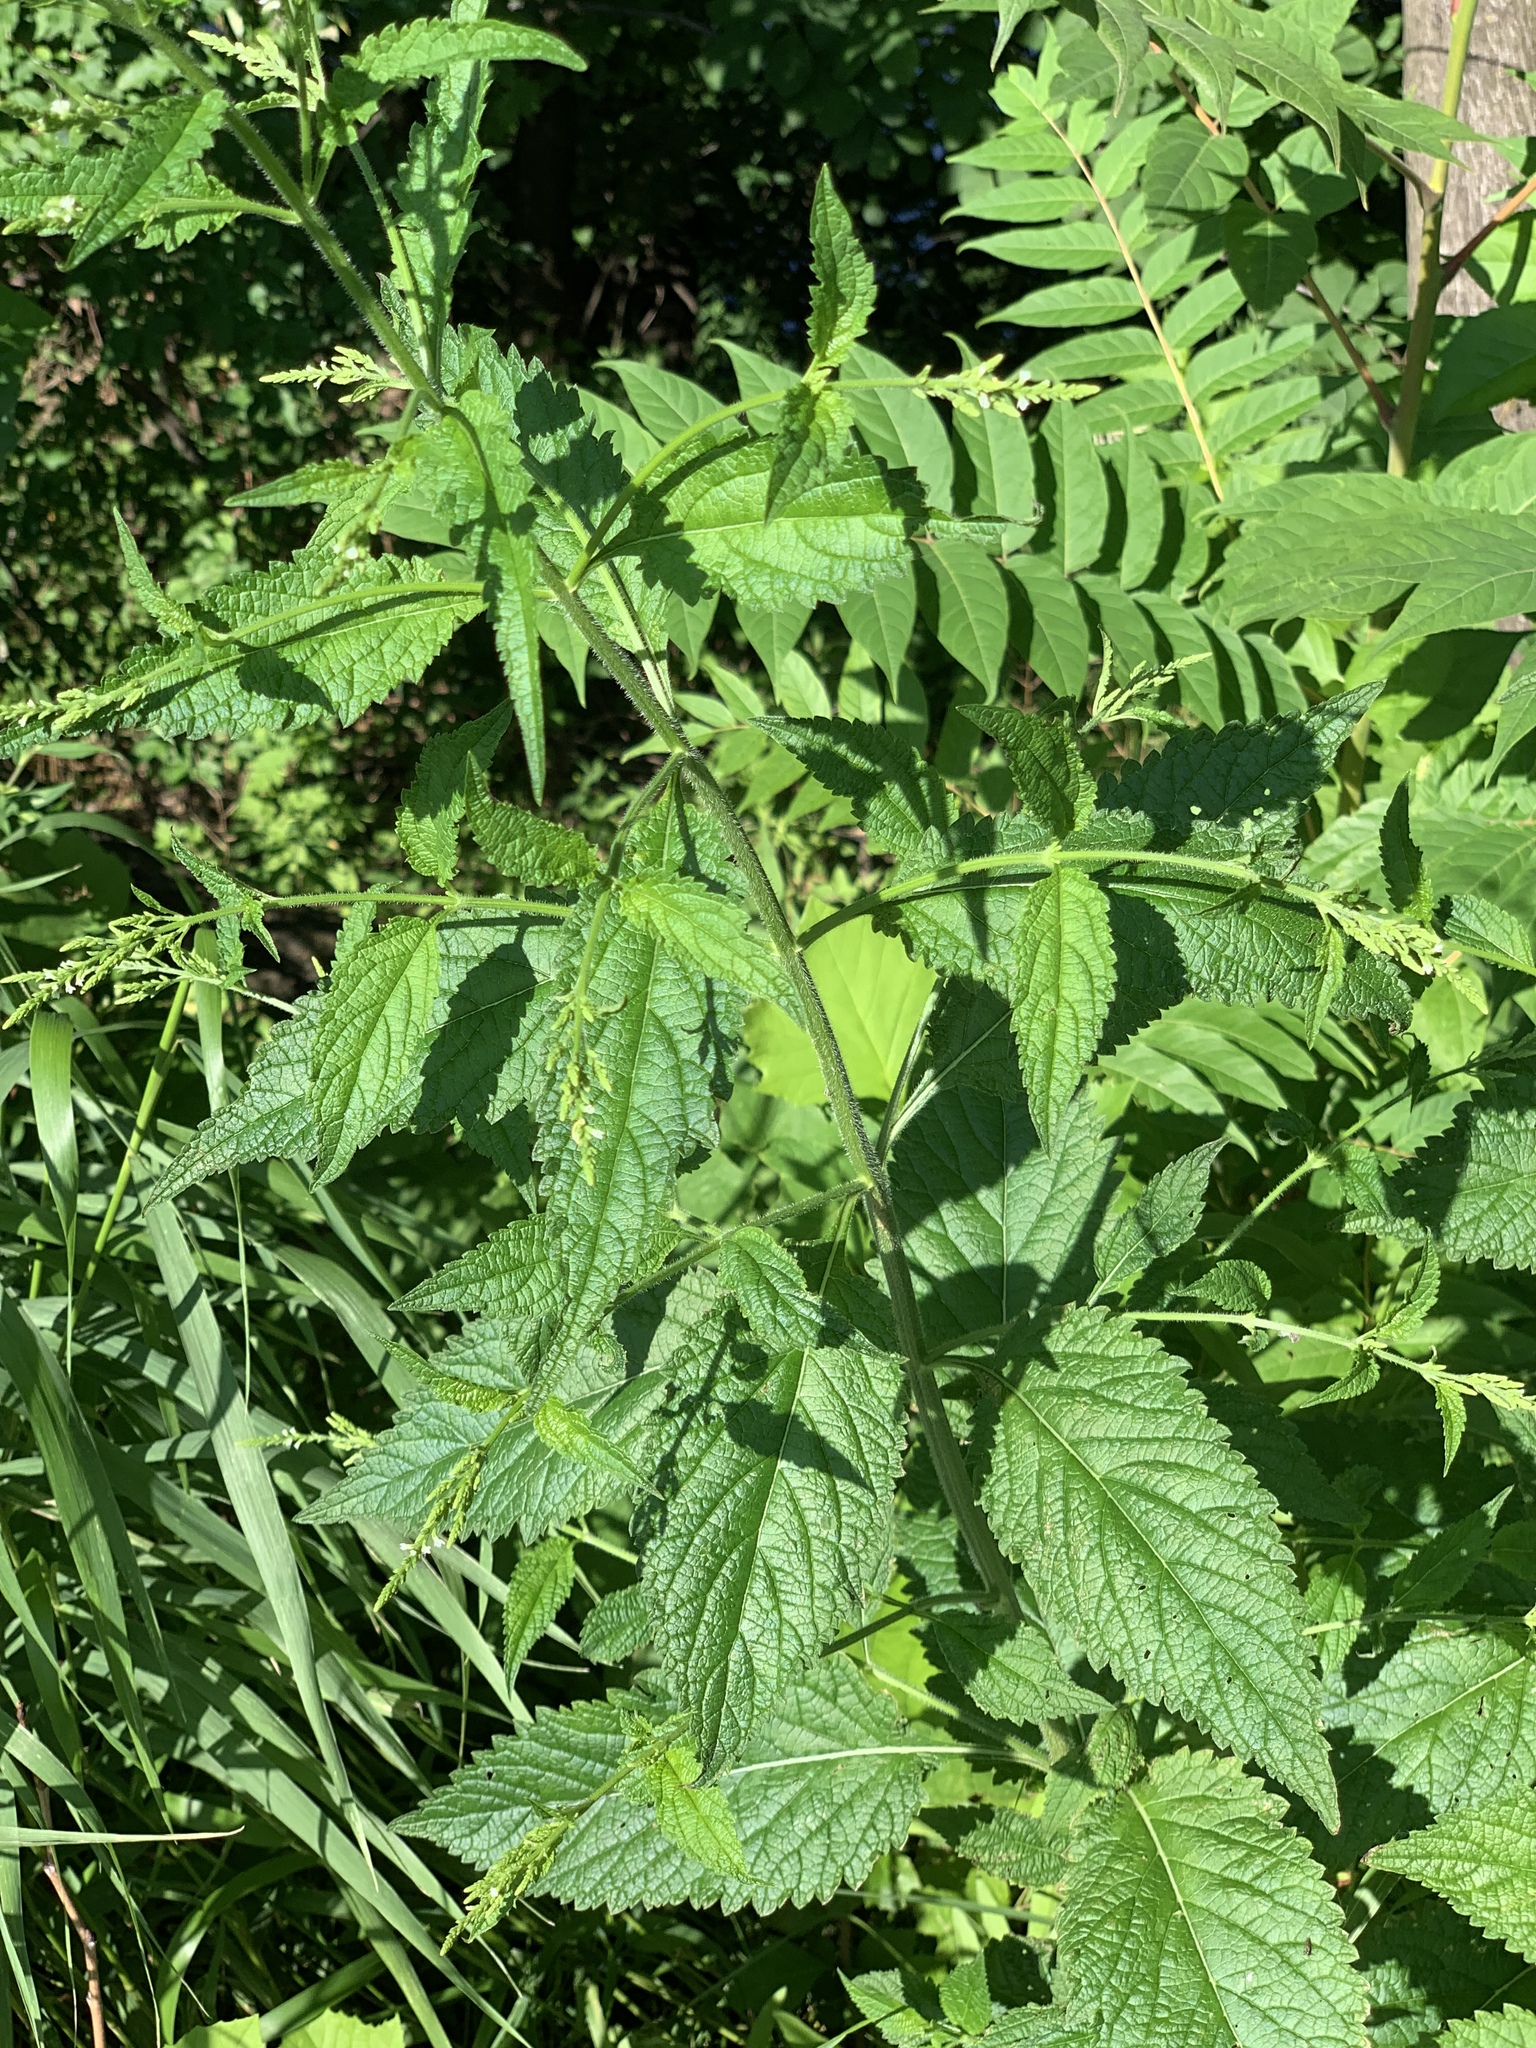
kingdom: Plantae
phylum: Tracheophyta
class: Magnoliopsida
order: Lamiales
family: Verbenaceae
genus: Verbena
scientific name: Verbena urticifolia
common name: Nettle-leaved vervain
